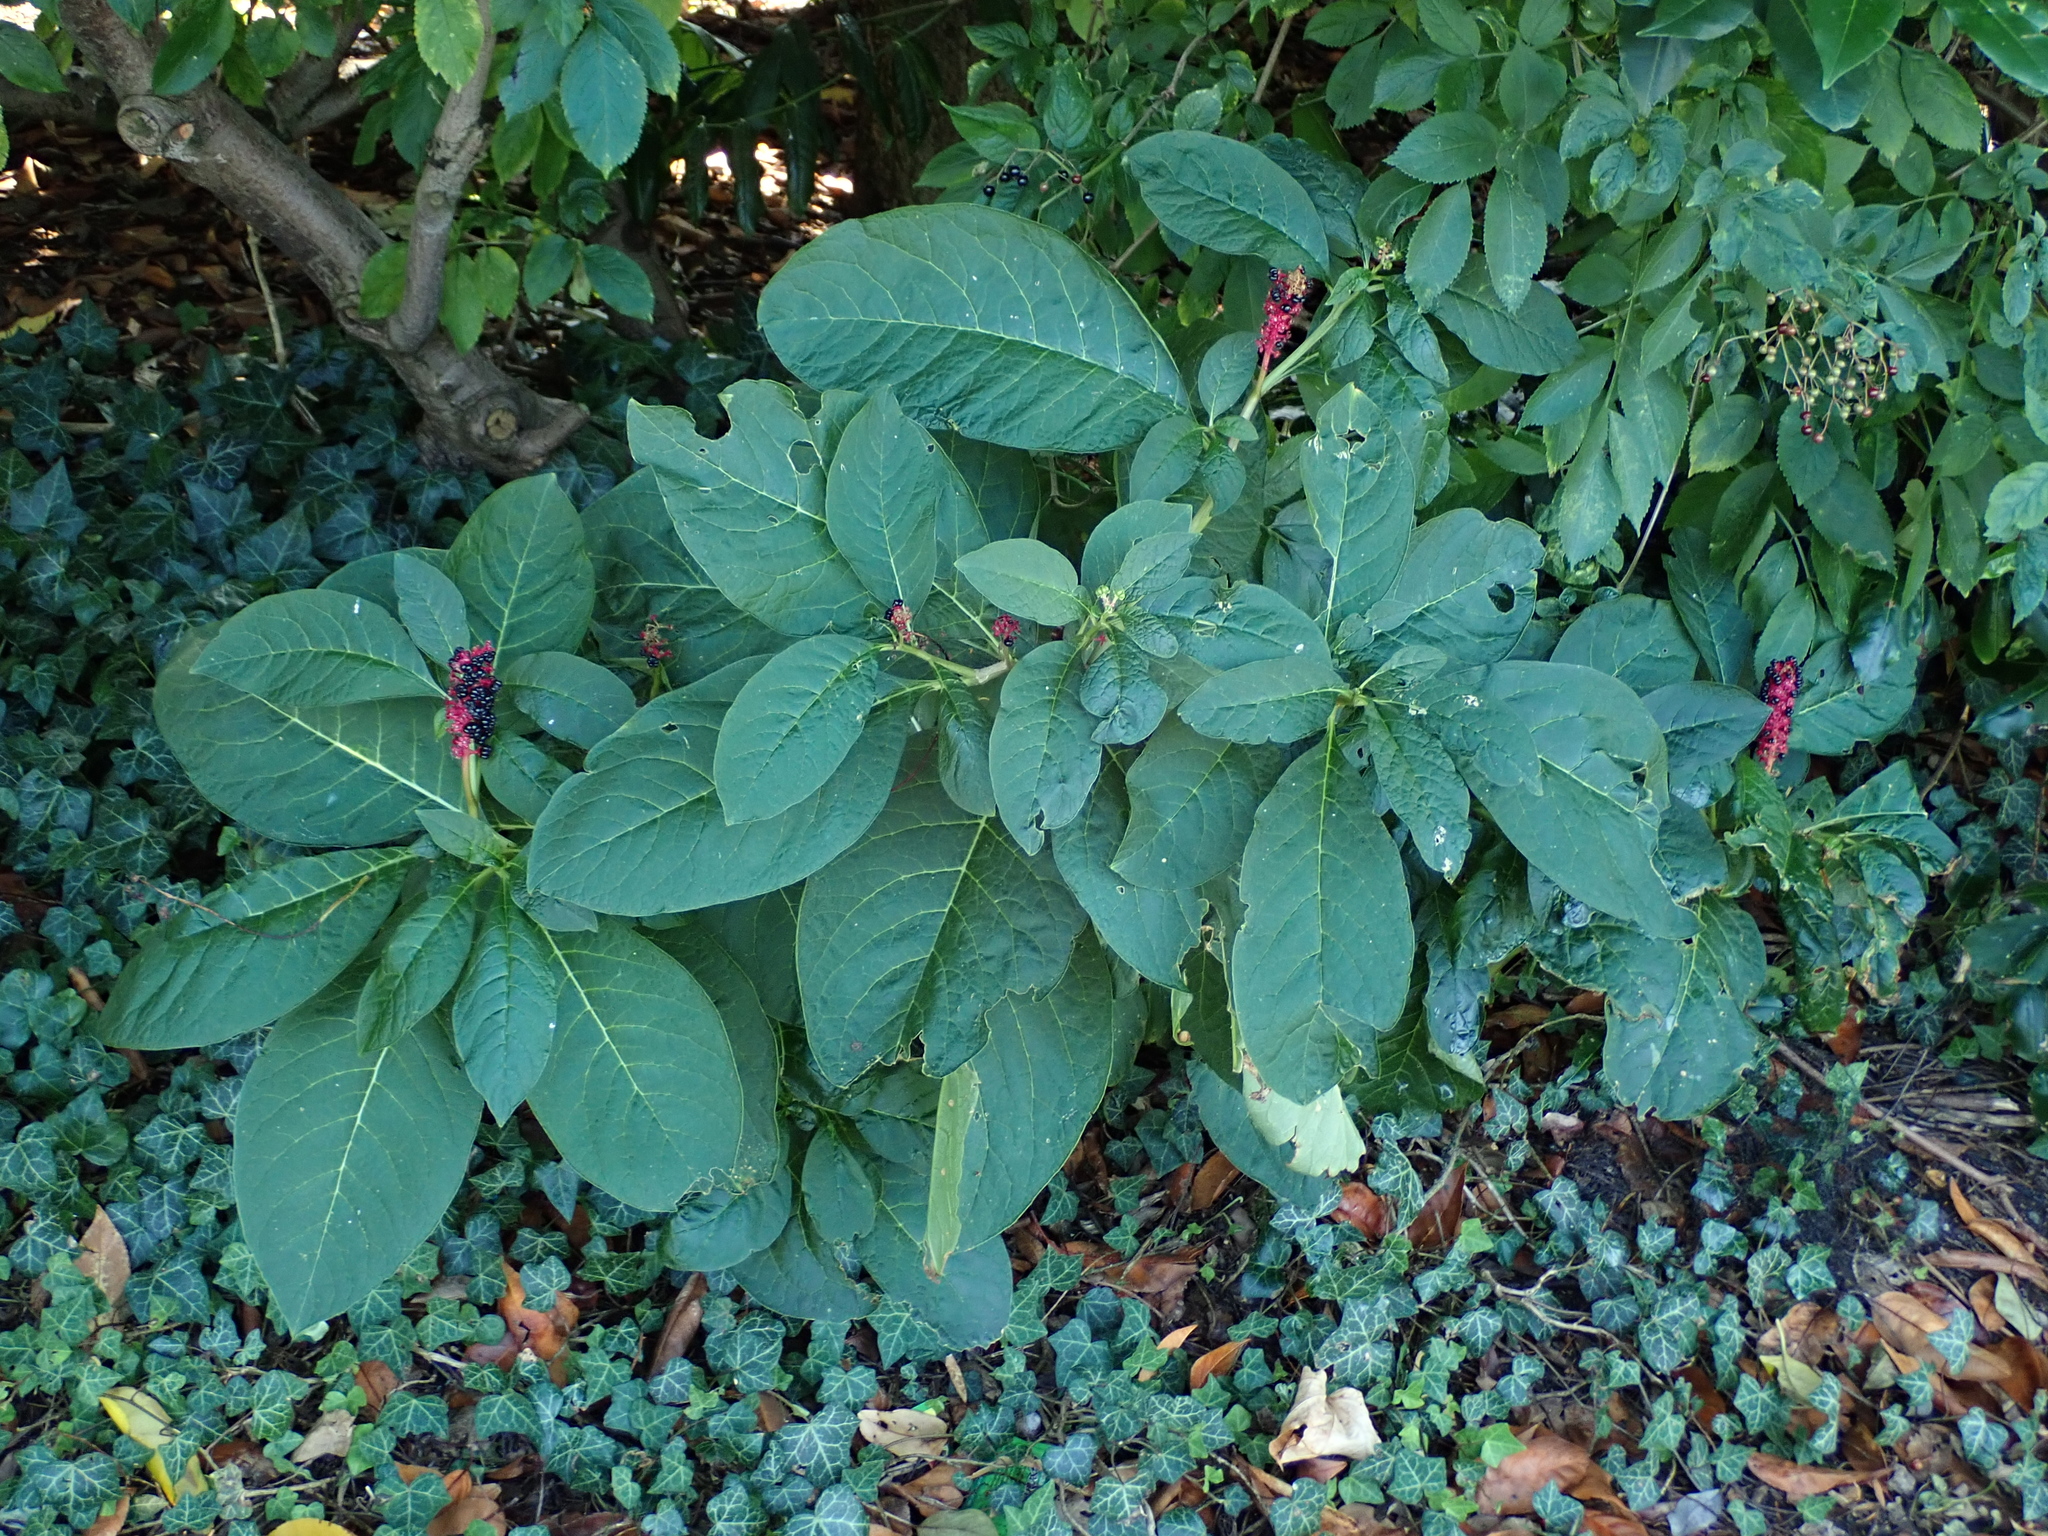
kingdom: Plantae
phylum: Tracheophyta
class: Magnoliopsida
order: Caryophyllales
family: Phytolaccaceae
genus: Phytolacca
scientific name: Phytolacca acinosa
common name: Indian pokeweed
